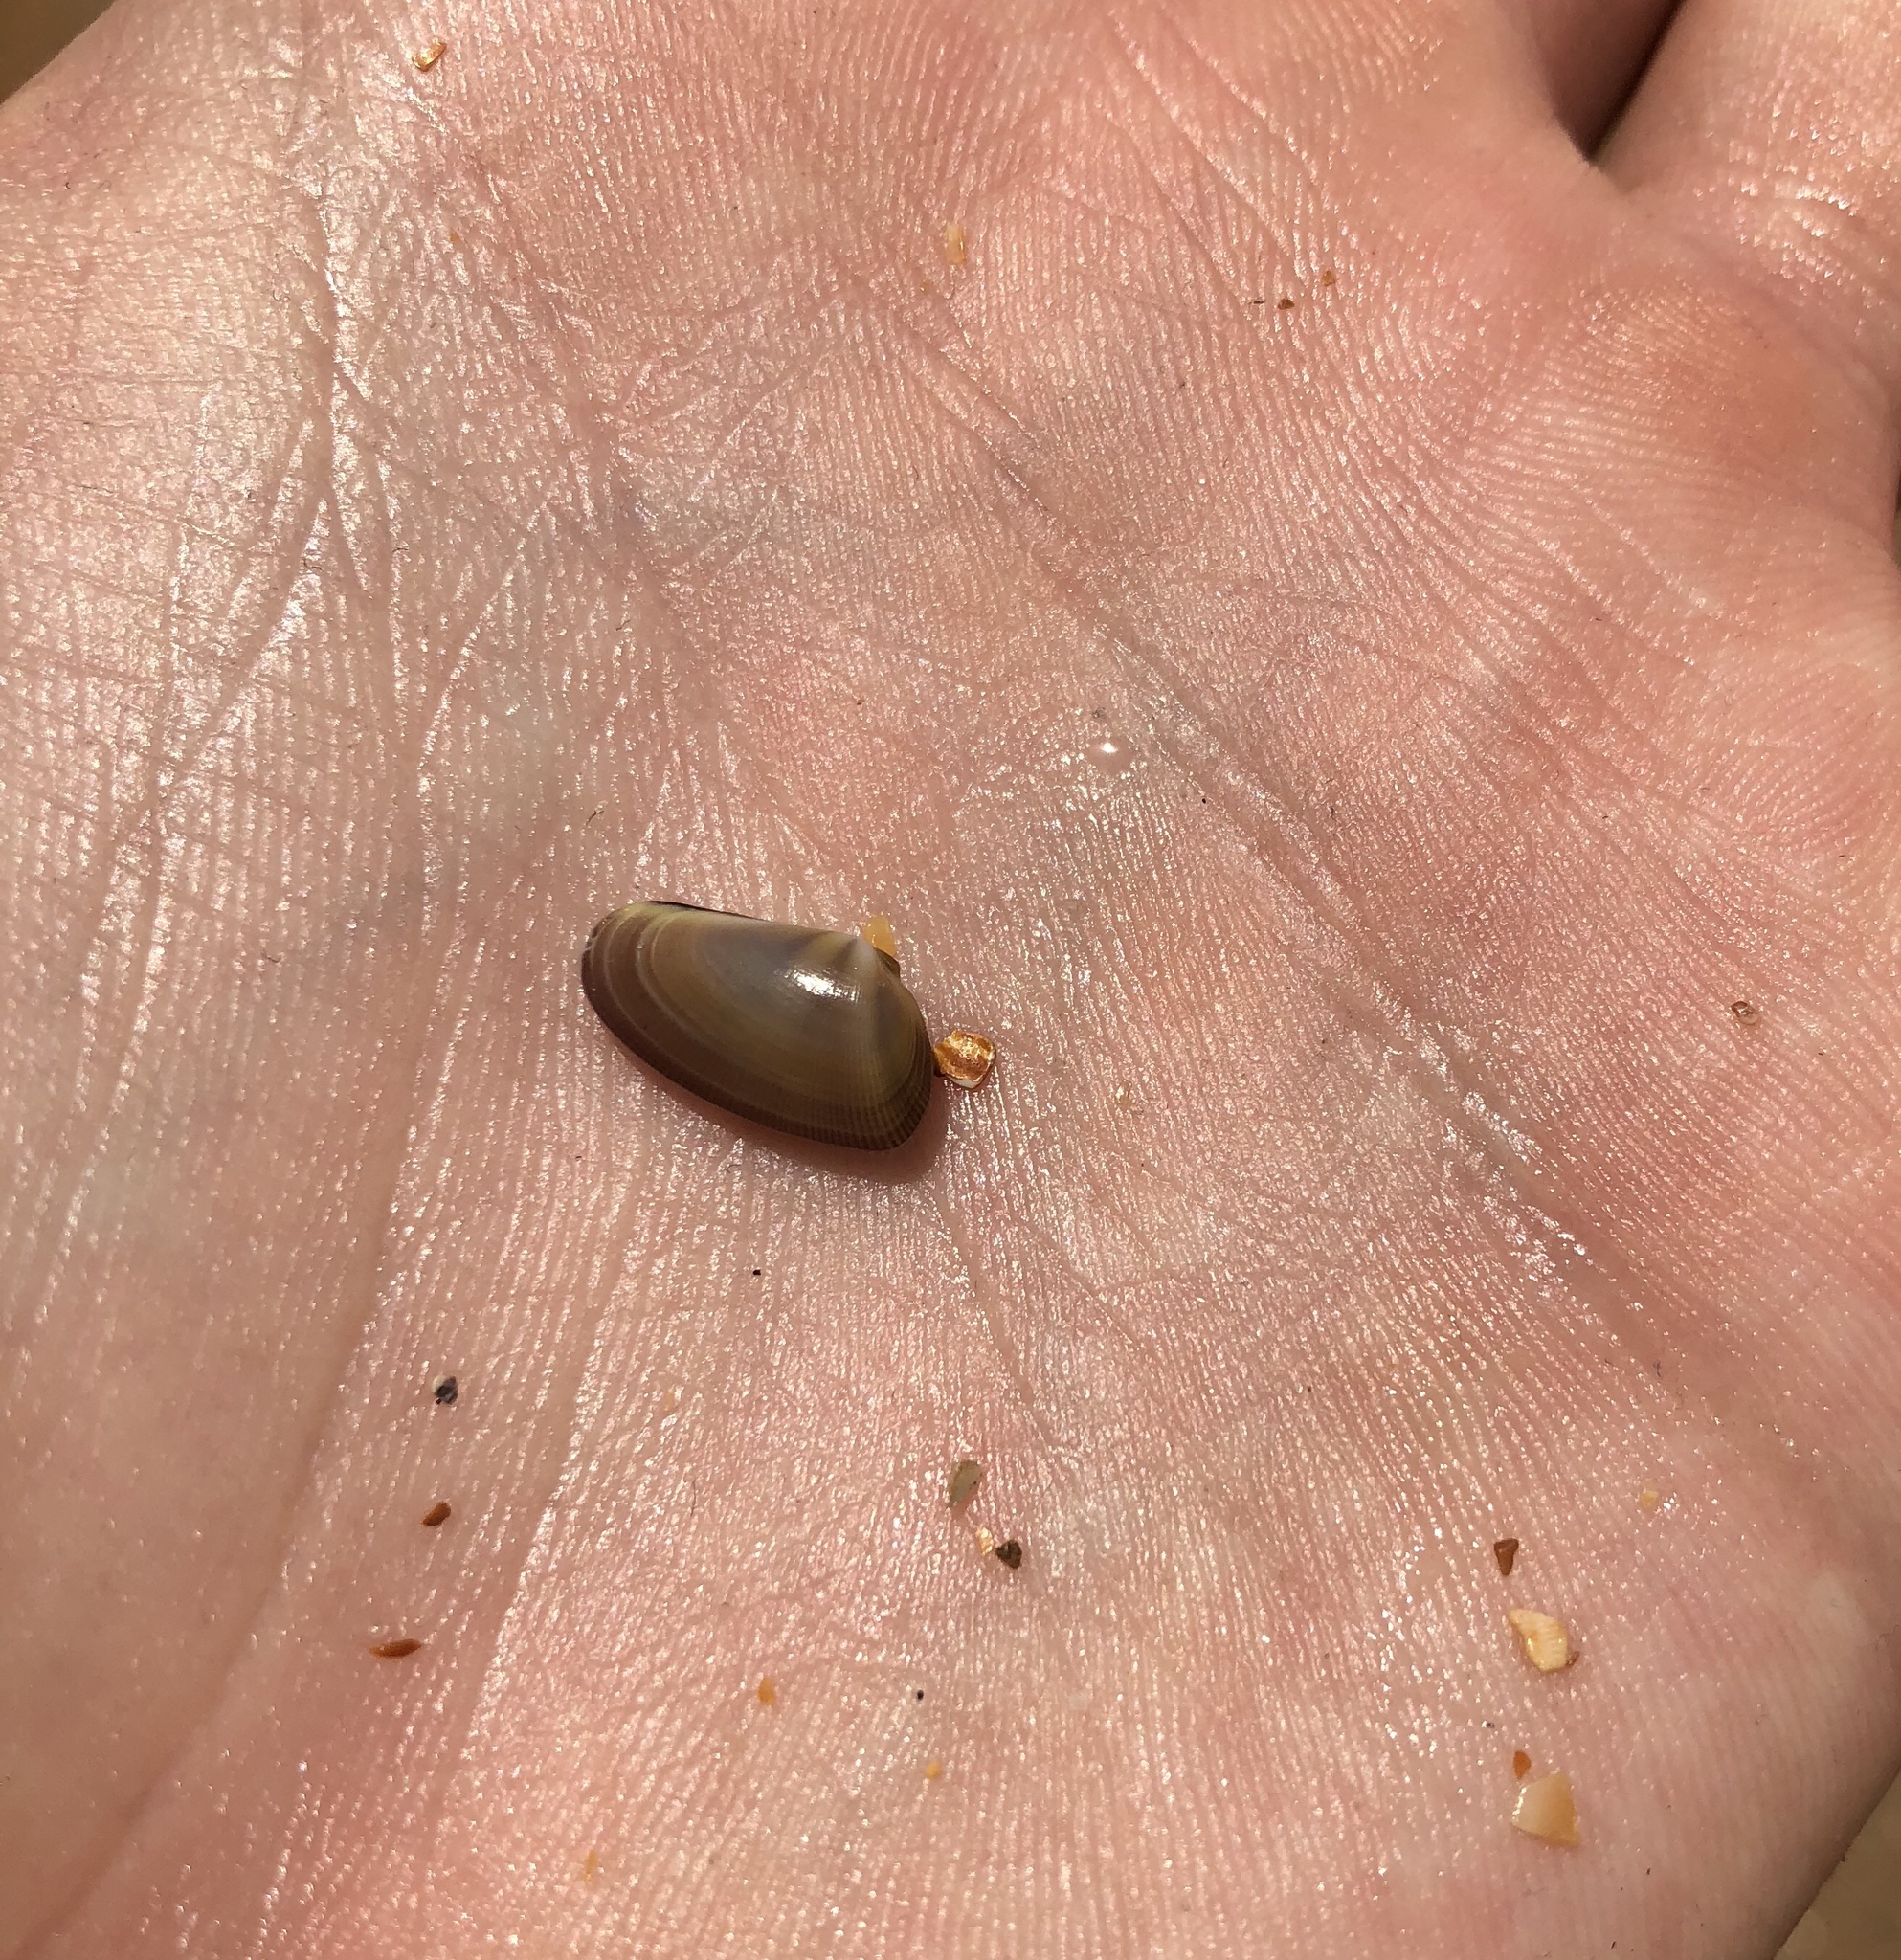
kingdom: Animalia
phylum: Mollusca
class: Bivalvia
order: Cardiida
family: Donacidae
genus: Donax
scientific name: Donax variabilis
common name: Butterfly shell
